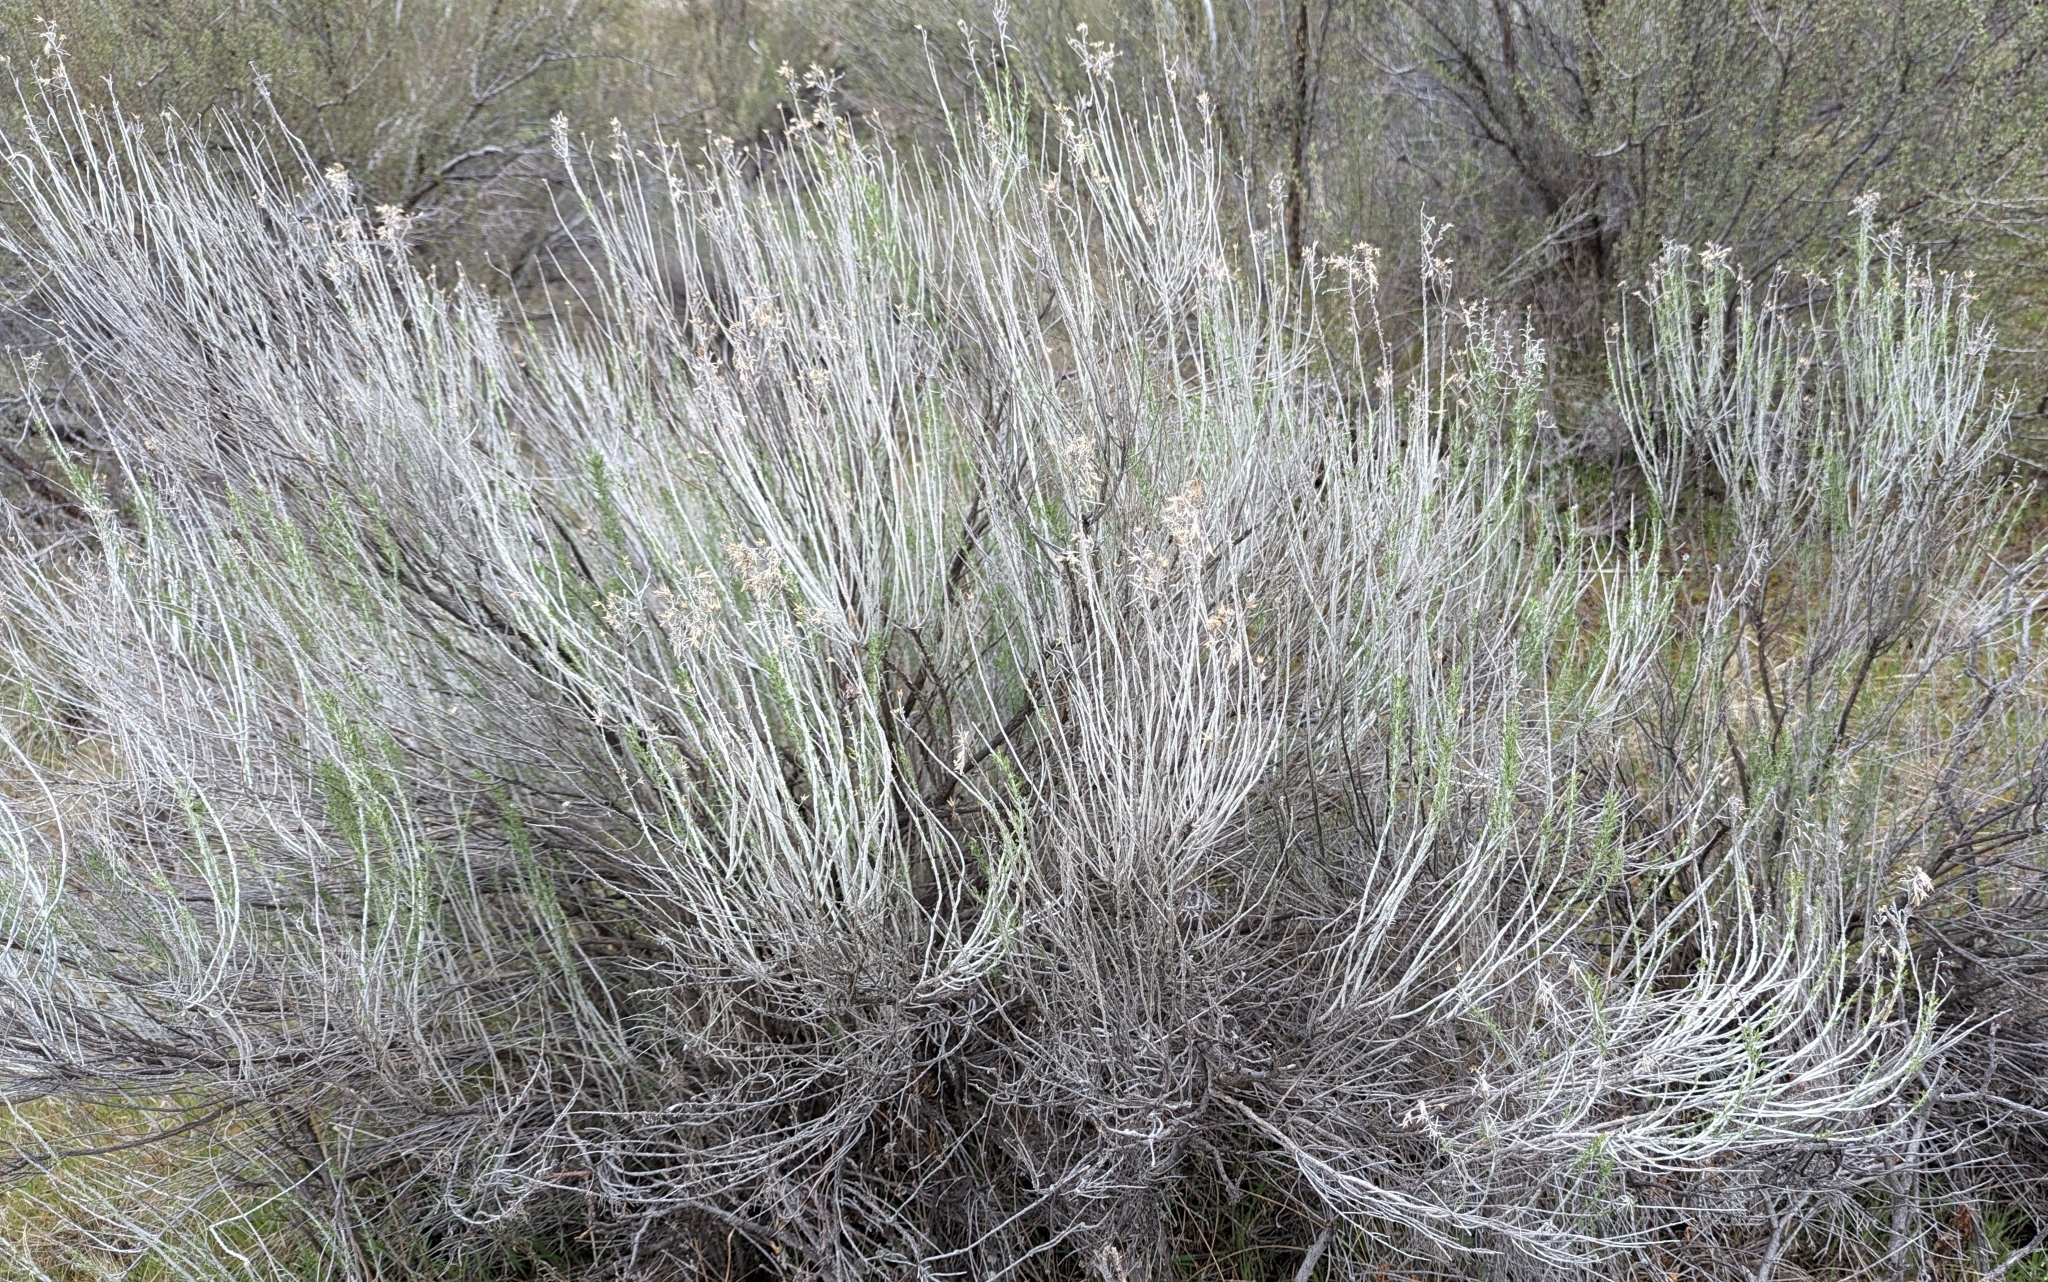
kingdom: Plantae
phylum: Tracheophyta
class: Magnoliopsida
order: Asterales
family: Asteraceae
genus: Ericameria
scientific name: Ericameria nauseosa
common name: Rubber rabbitbrush
